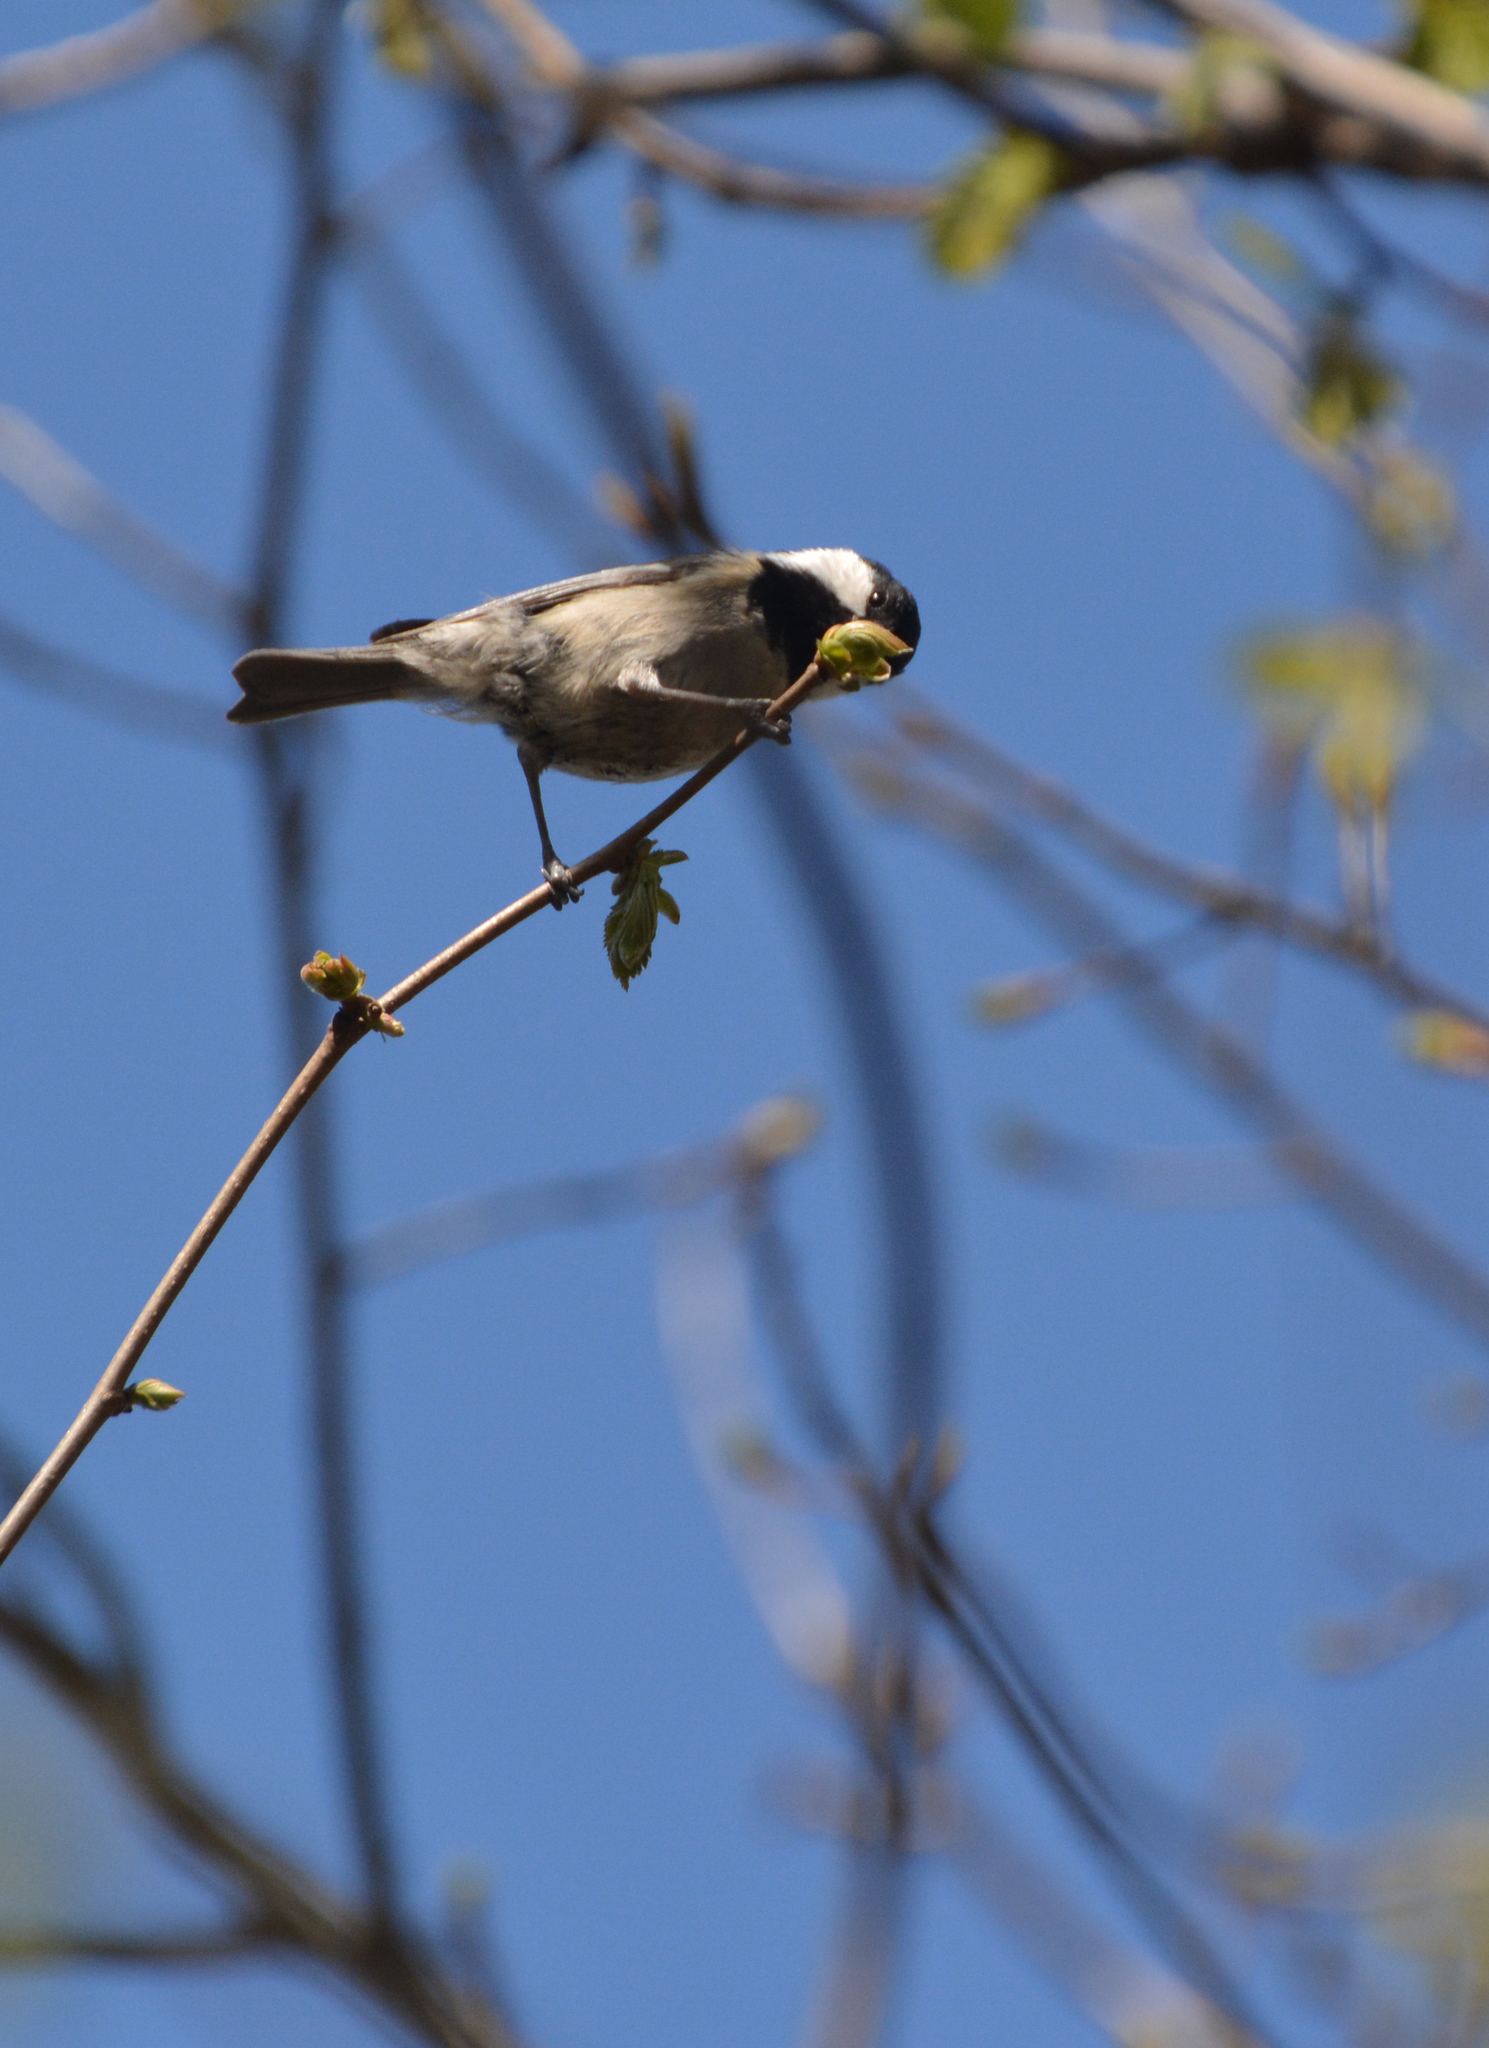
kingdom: Animalia
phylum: Chordata
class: Aves
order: Passeriformes
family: Paridae
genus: Periparus
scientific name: Periparus ater
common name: Coal tit
